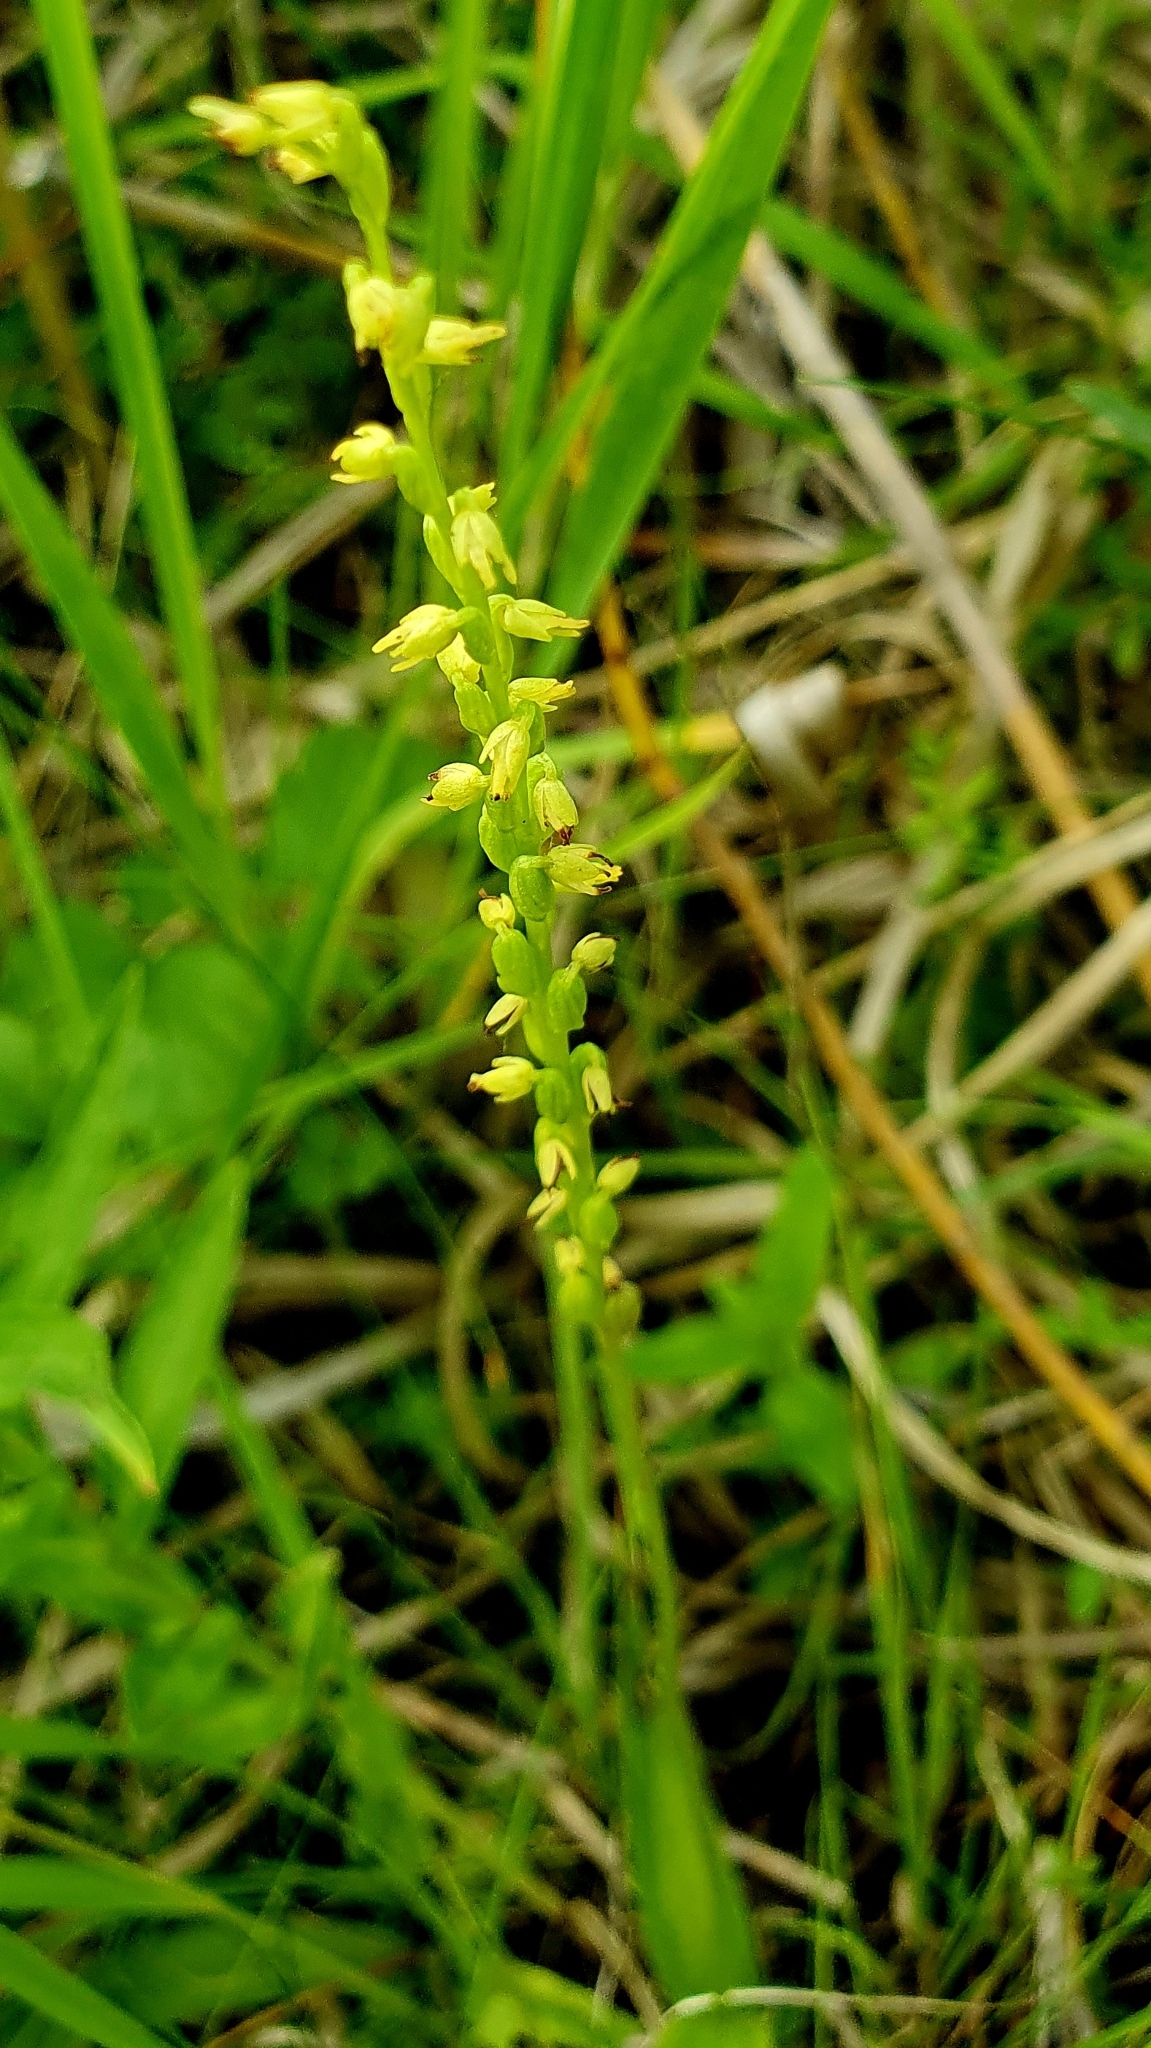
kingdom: Plantae
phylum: Tracheophyta
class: Liliopsida
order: Asparagales
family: Orchidaceae
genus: Herminium
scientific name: Herminium monorchis
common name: Musk orchid
